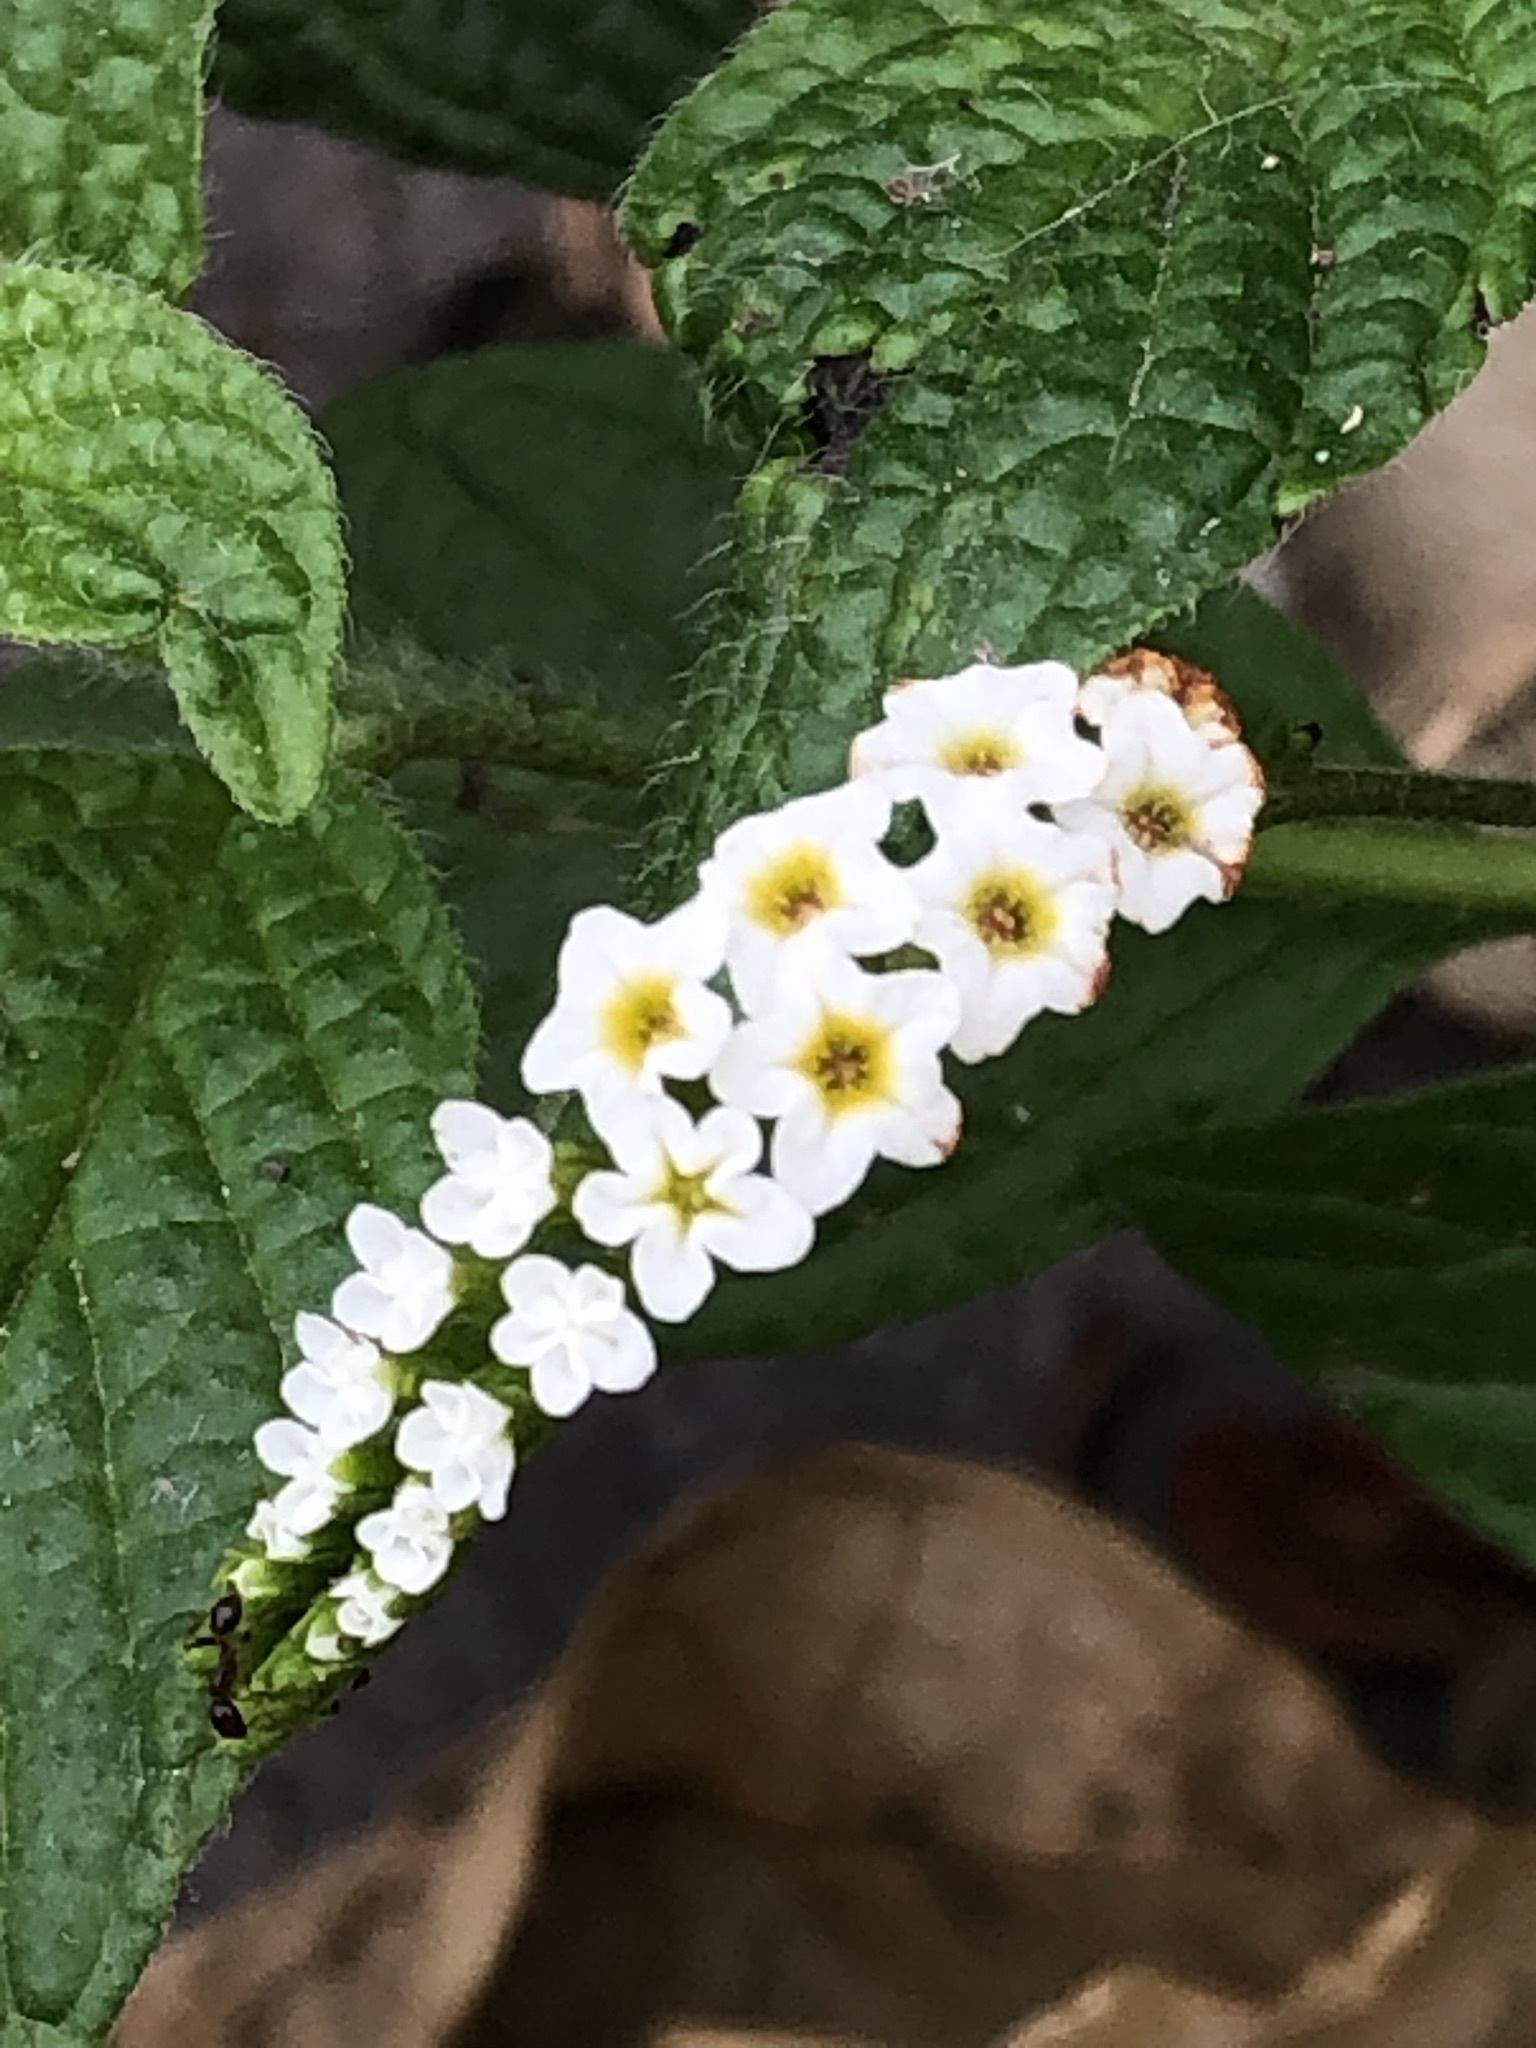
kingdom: Plantae
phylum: Tracheophyta
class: Magnoliopsida
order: Boraginales
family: Heliotropiaceae
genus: Heliotropium
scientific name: Heliotropium angiospermum
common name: Eye bright
